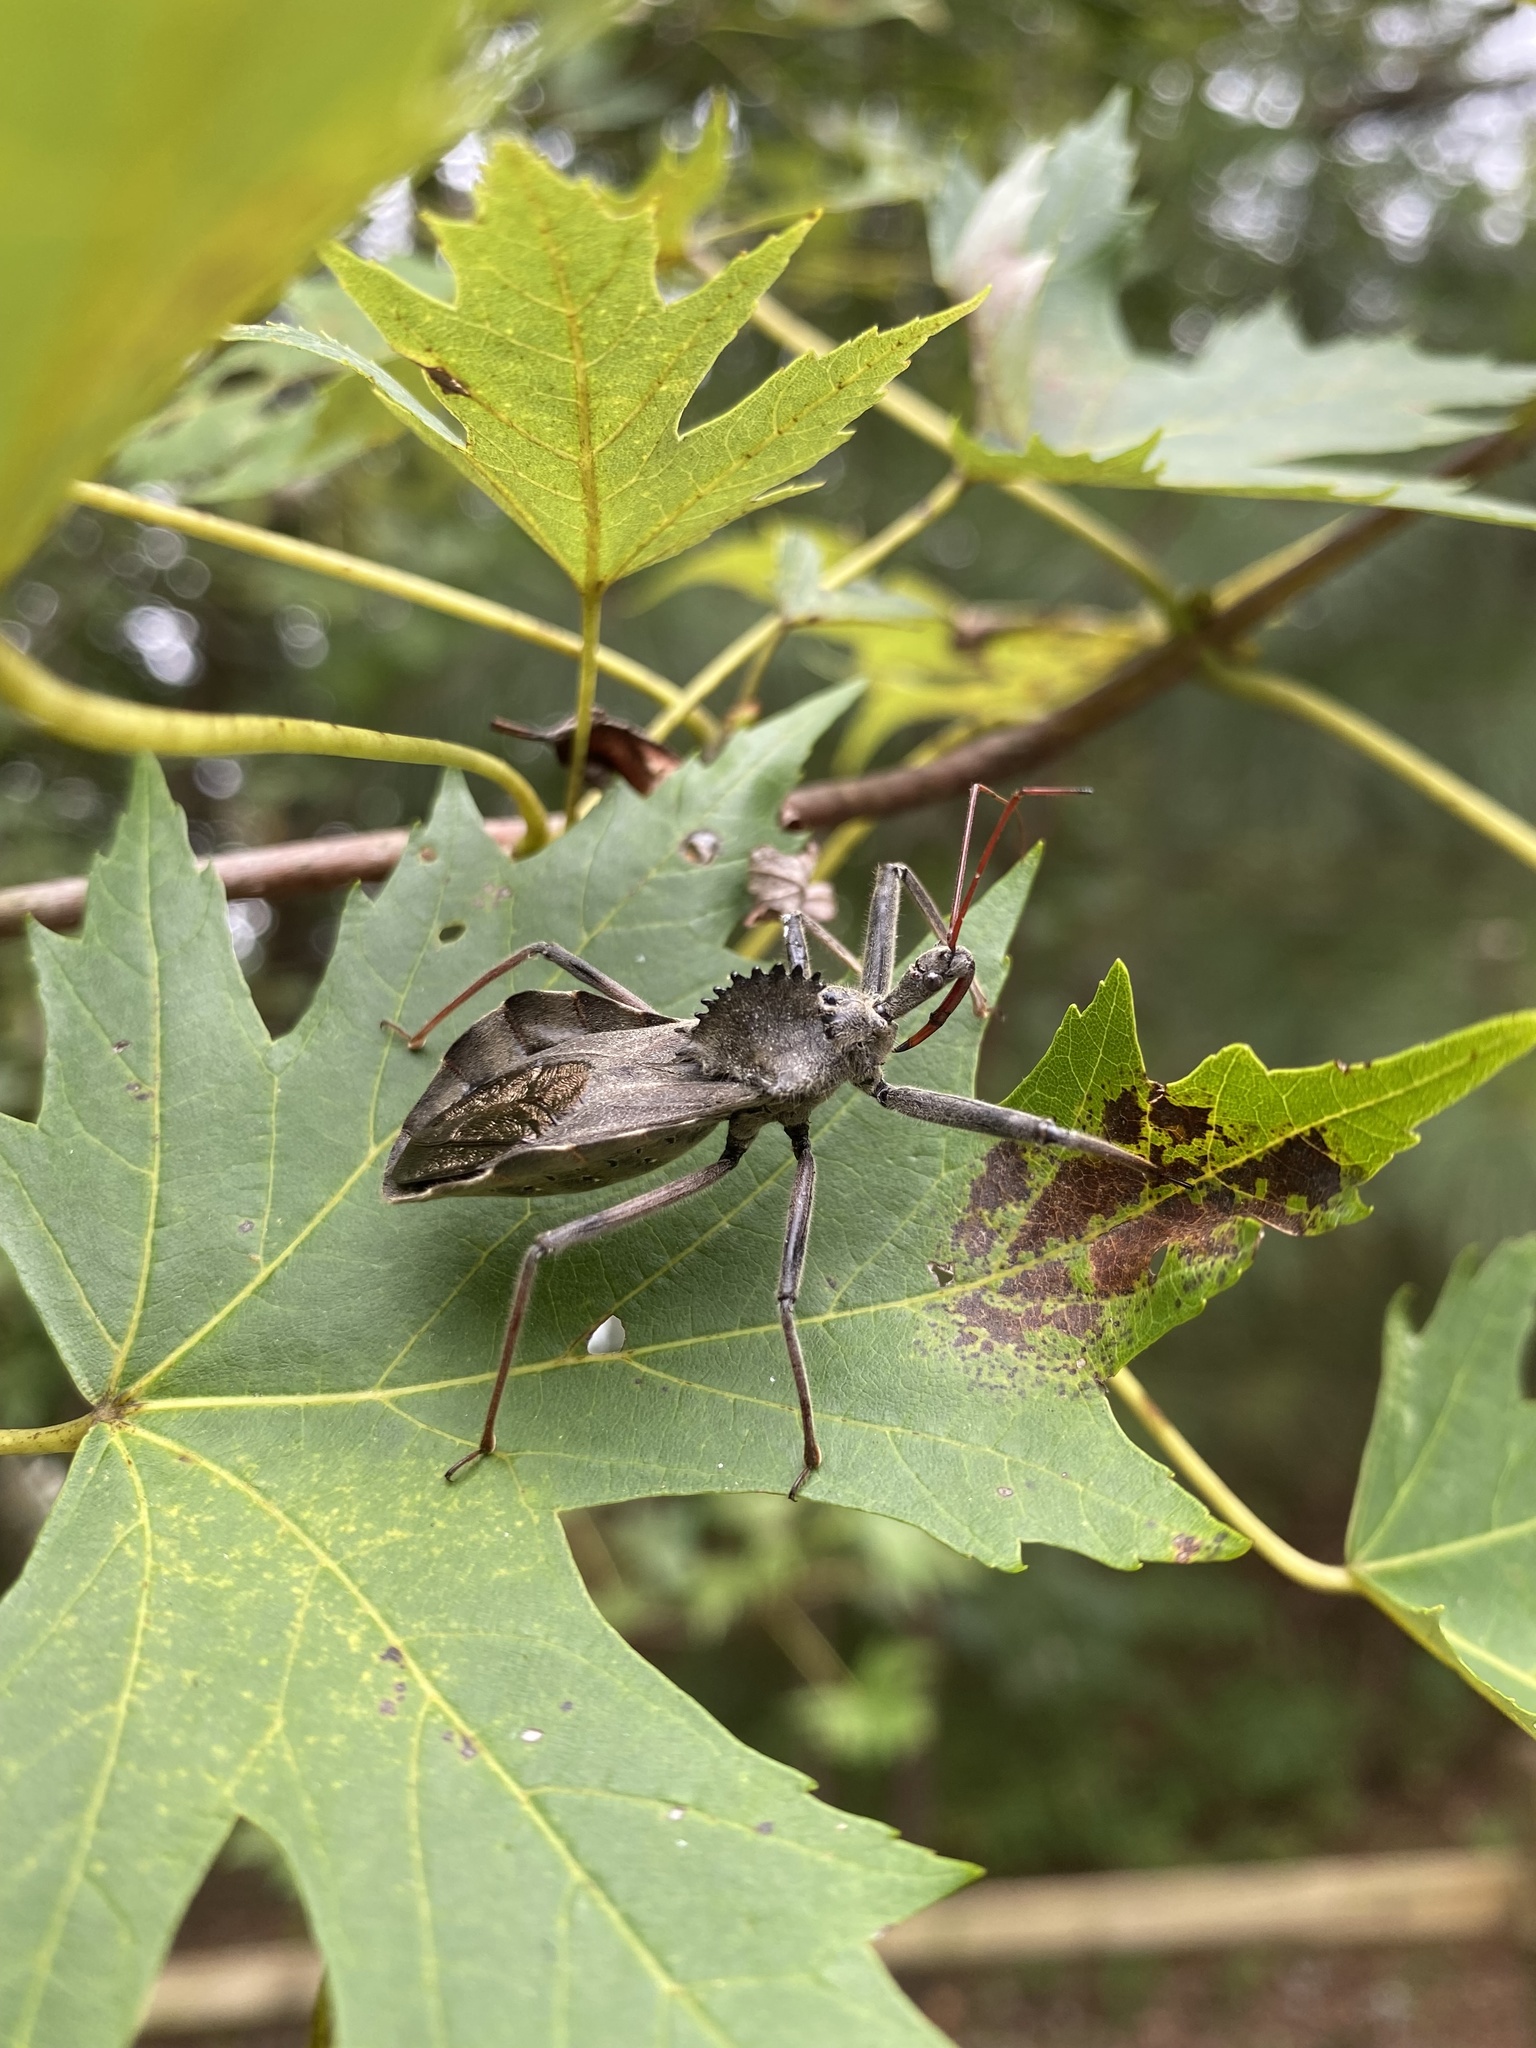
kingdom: Animalia
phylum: Arthropoda
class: Insecta
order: Hemiptera
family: Reduviidae
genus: Arilus
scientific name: Arilus cristatus
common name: North american wheel bug
